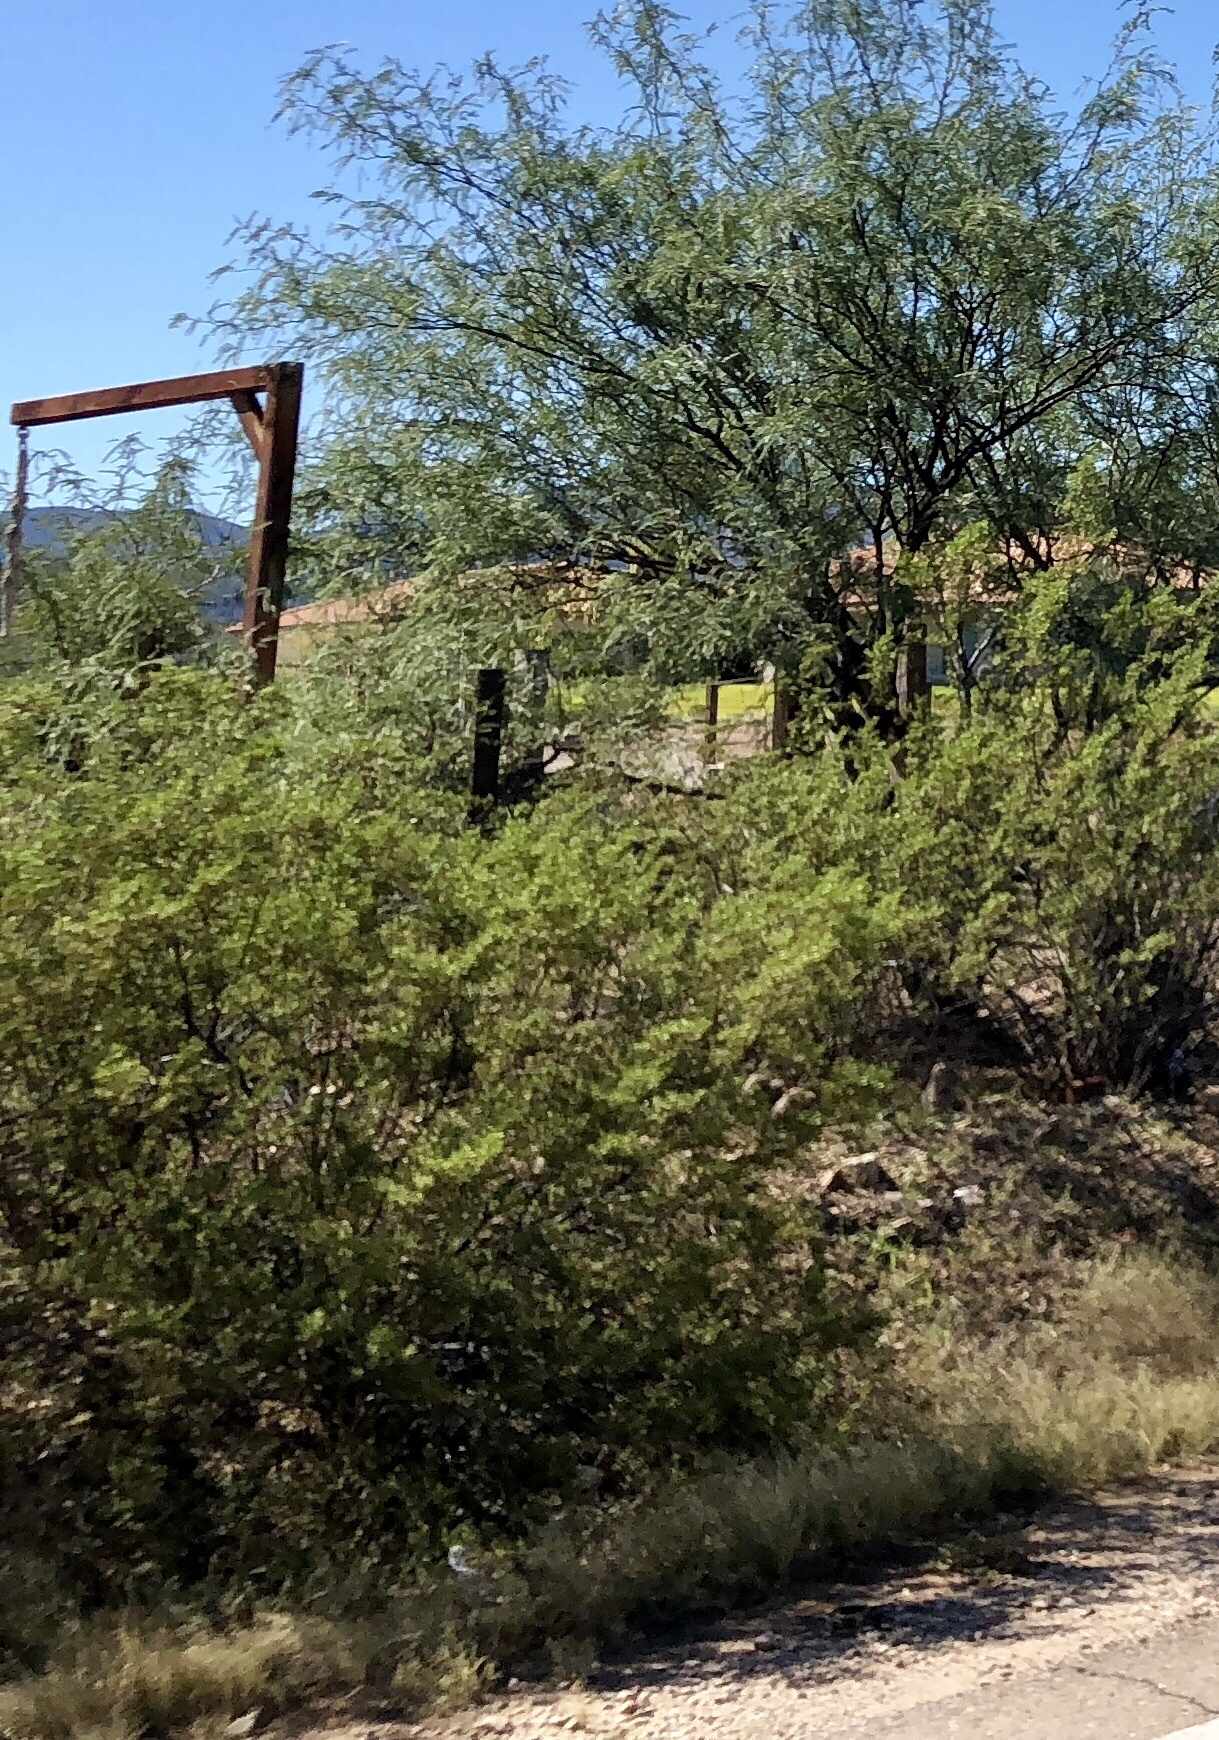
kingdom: Plantae
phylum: Tracheophyta
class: Magnoliopsida
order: Zygophyllales
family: Zygophyllaceae
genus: Larrea
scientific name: Larrea tridentata
